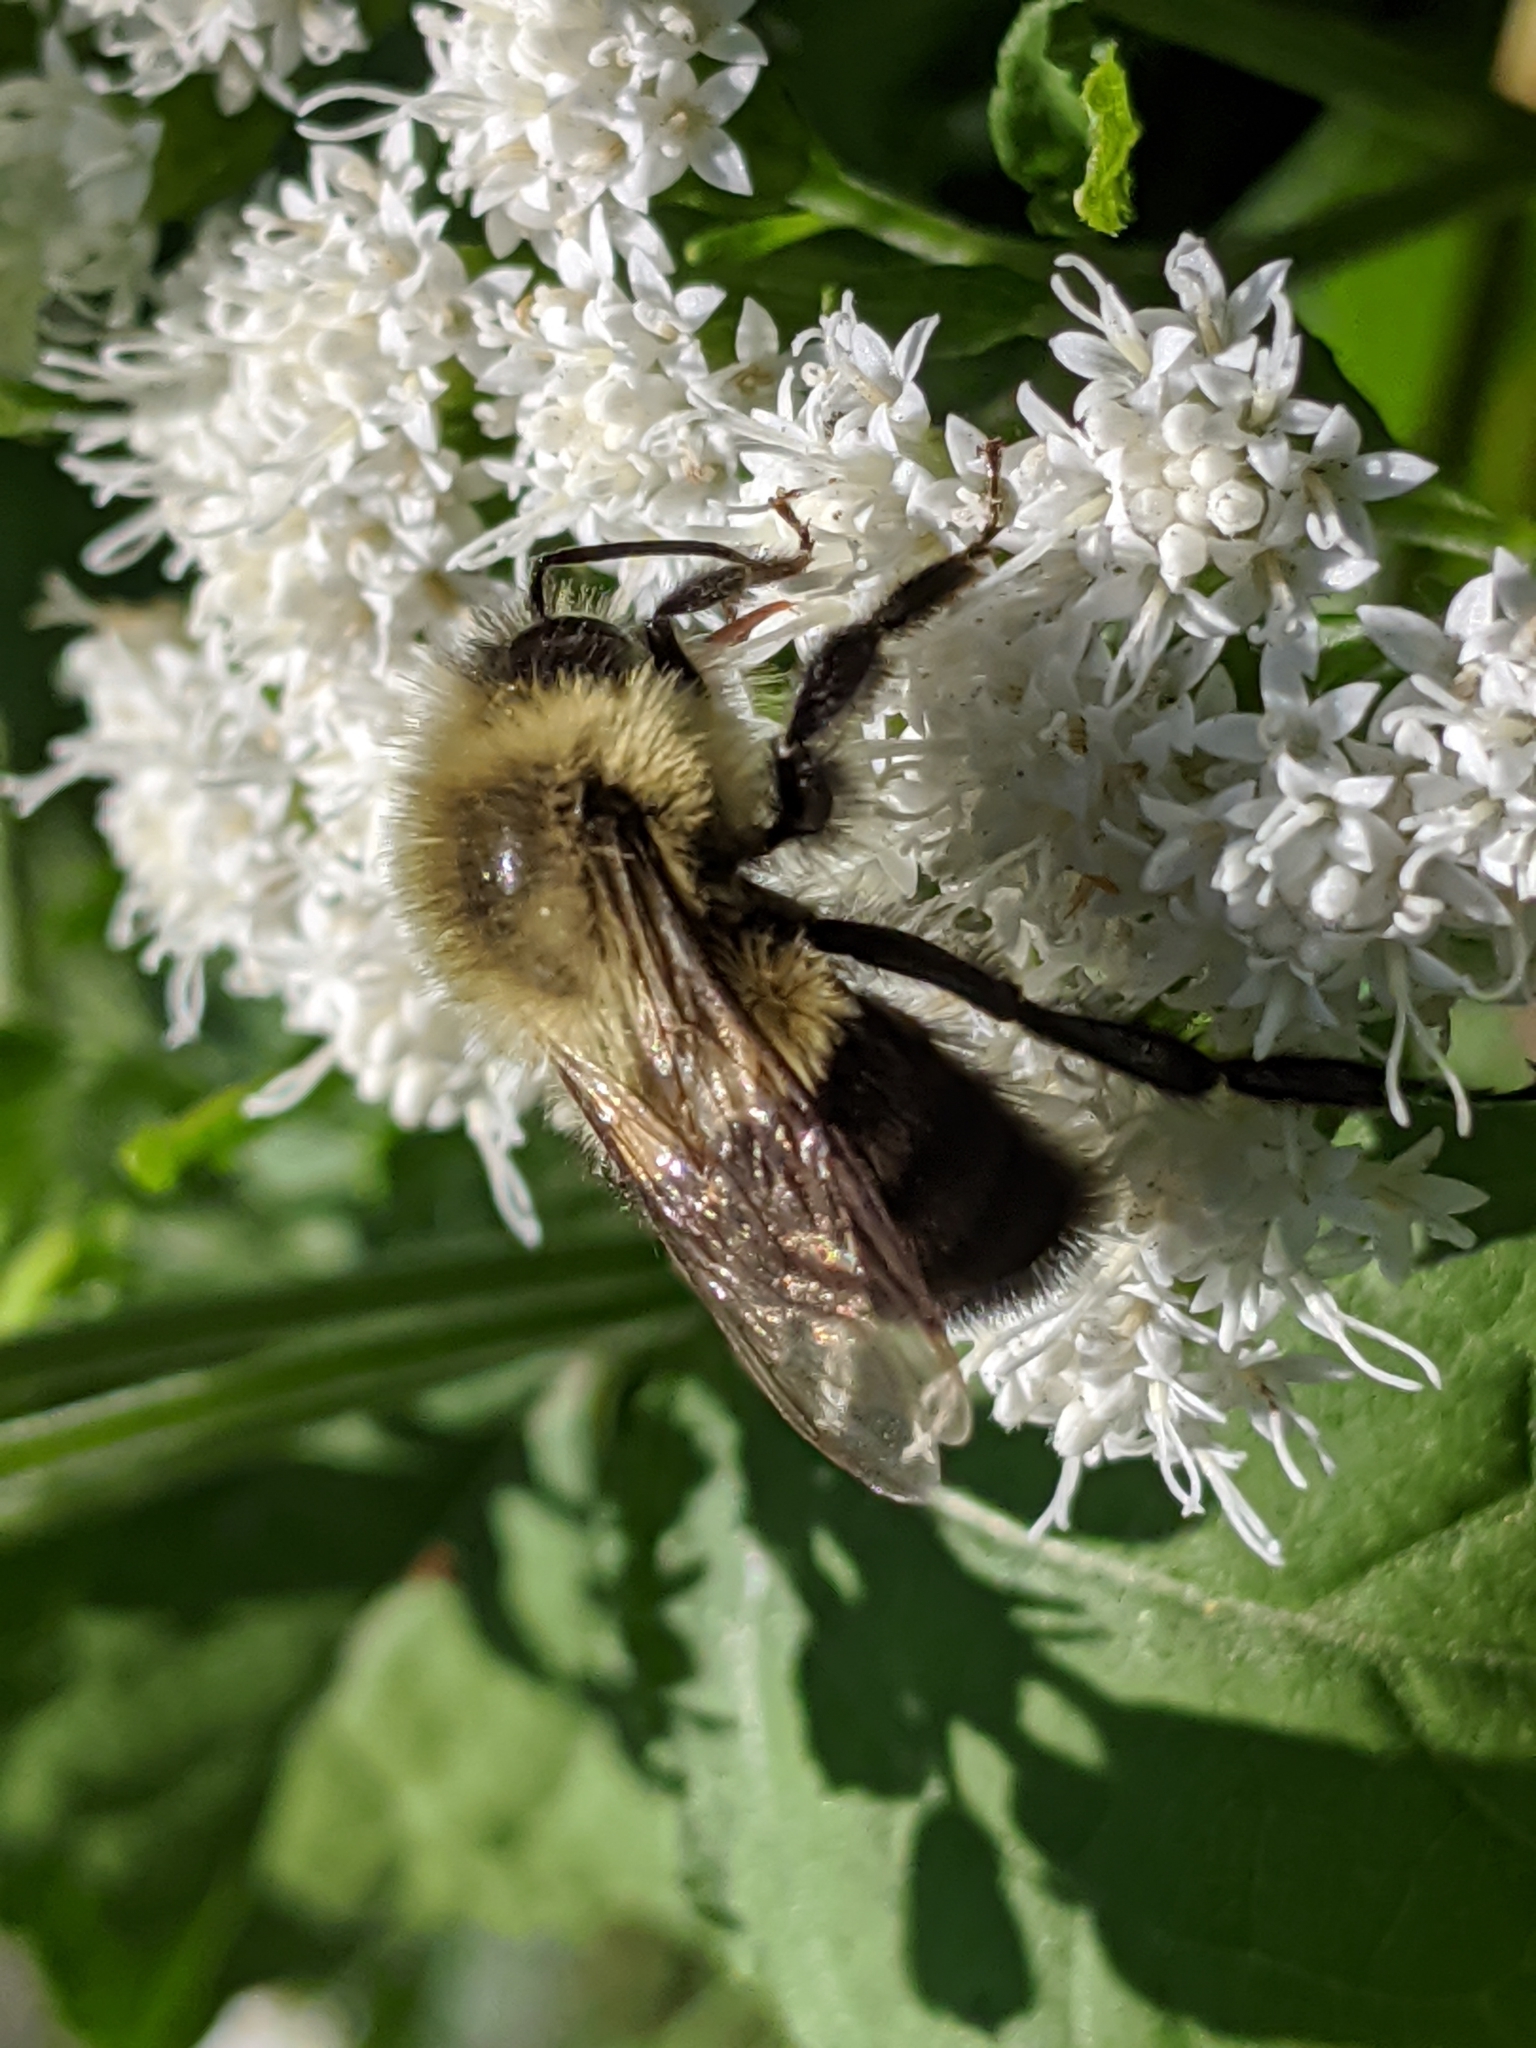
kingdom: Animalia
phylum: Arthropoda
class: Insecta
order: Hymenoptera
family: Apidae
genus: Bombus
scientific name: Bombus impatiens
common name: Common eastern bumble bee
